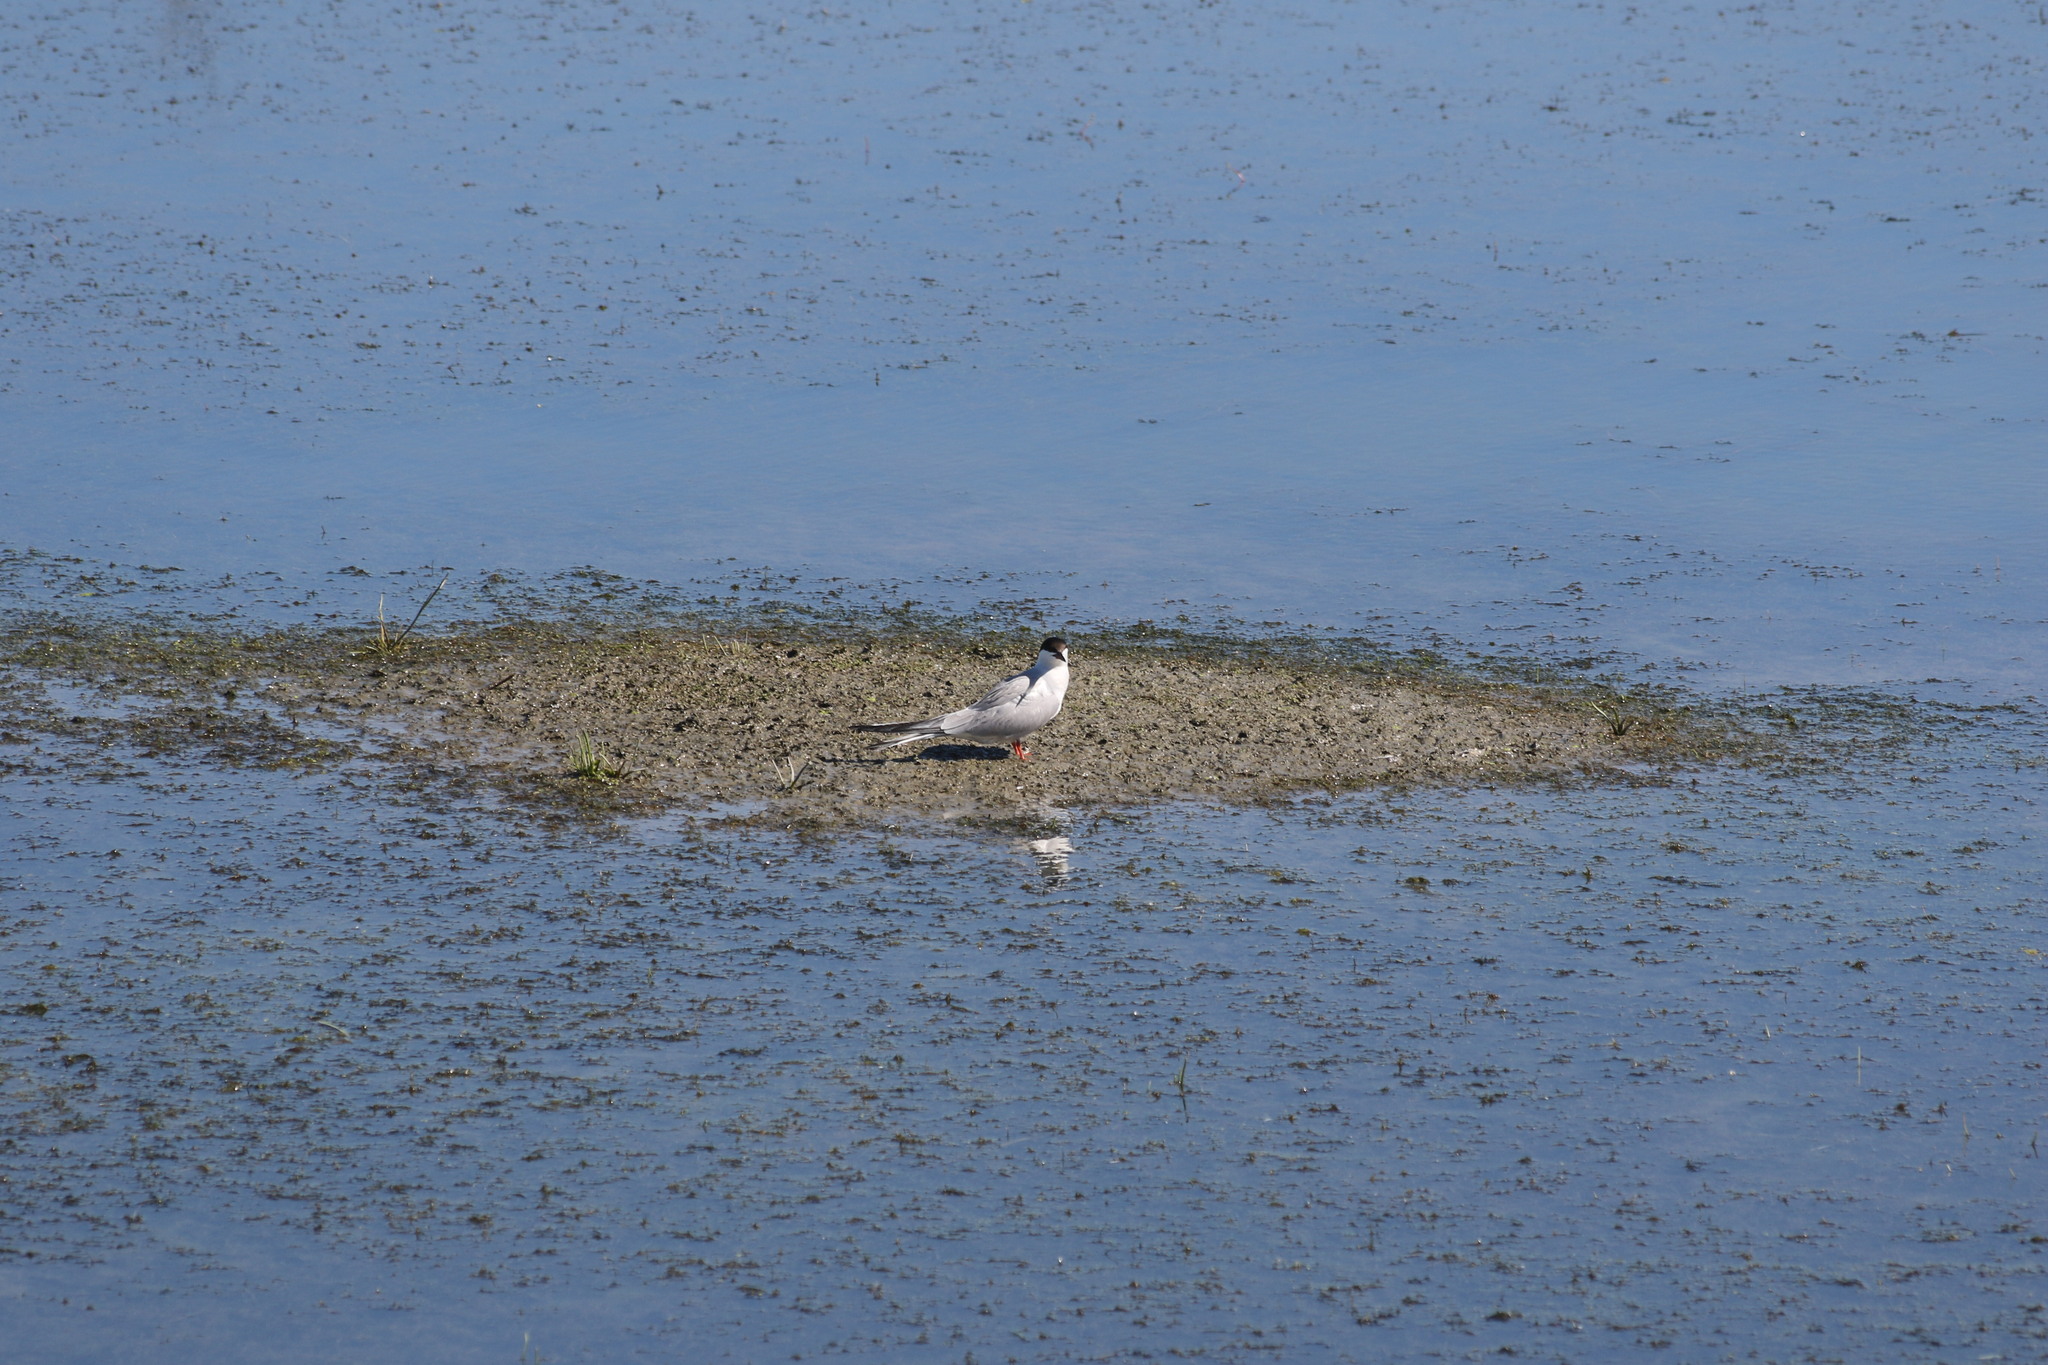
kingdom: Animalia
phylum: Chordata
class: Aves
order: Charadriiformes
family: Laridae
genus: Sterna
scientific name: Sterna hirundo
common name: Common tern
